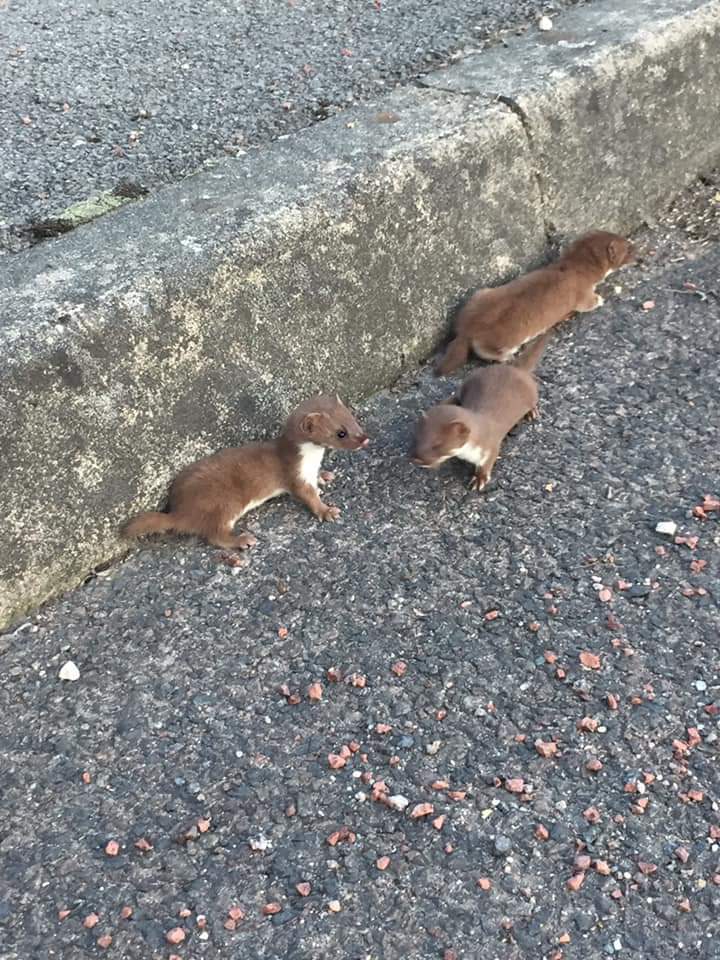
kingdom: Animalia
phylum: Chordata
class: Mammalia
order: Carnivora
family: Mustelidae
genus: Mustela
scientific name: Mustela nivalis
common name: Least weasel
